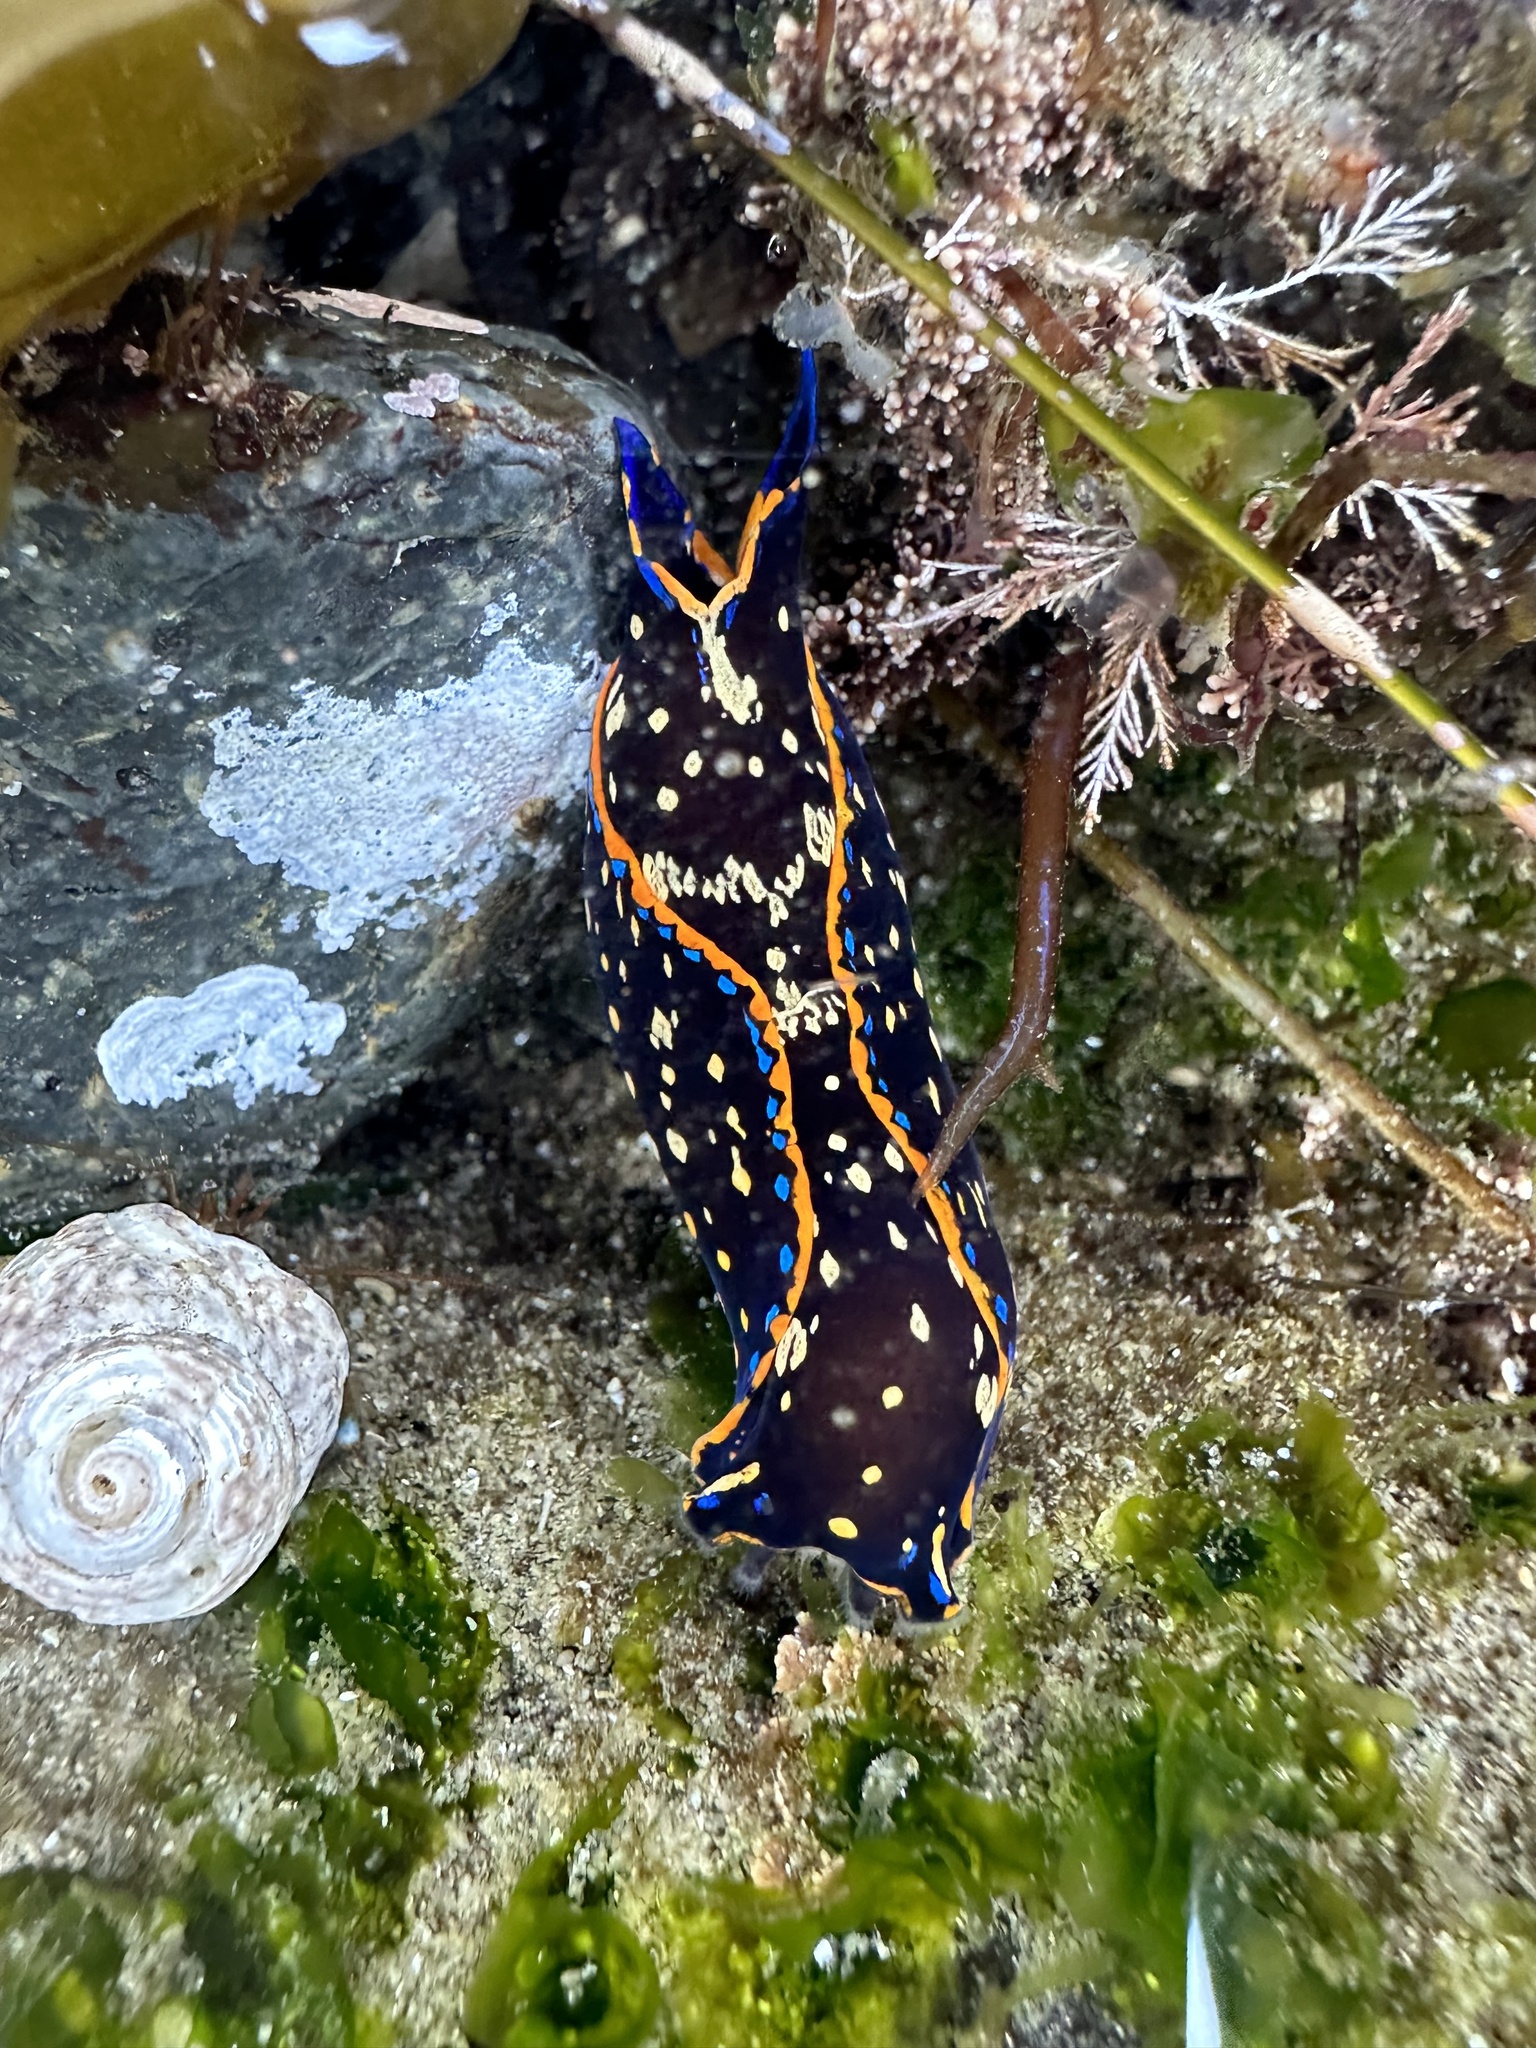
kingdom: Animalia
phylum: Mollusca
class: Gastropoda
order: Cephalaspidea
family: Aglajidae
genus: Navanax
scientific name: Navanax inermis
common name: California aglaja
